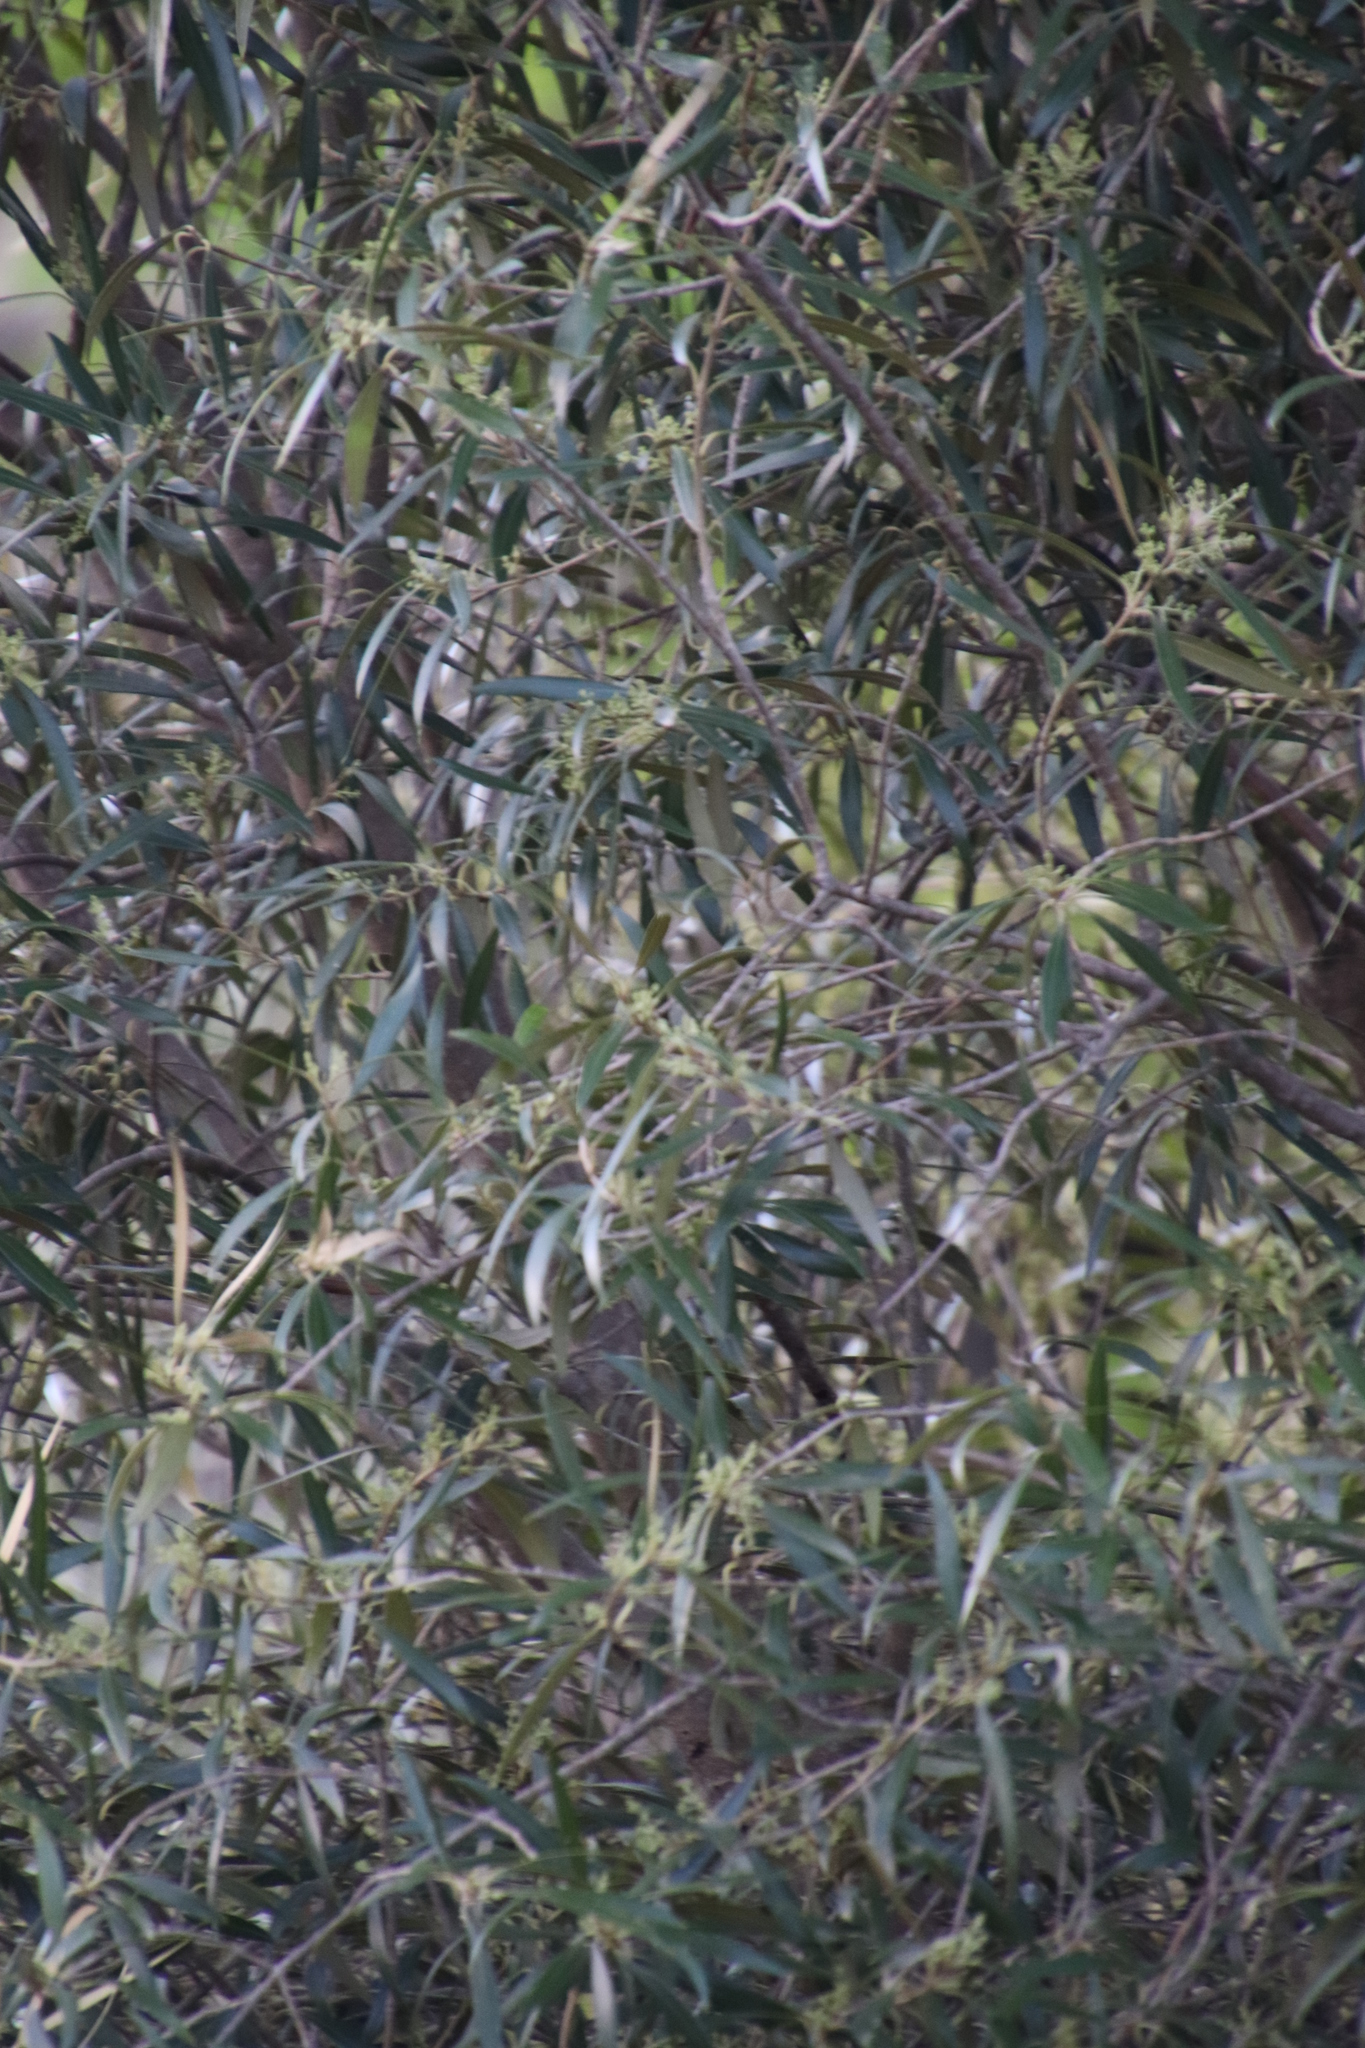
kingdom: Plantae
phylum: Tracheophyta
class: Magnoliopsida
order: Lamiales
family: Oleaceae
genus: Olea
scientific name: Olea europaea
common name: Olive
